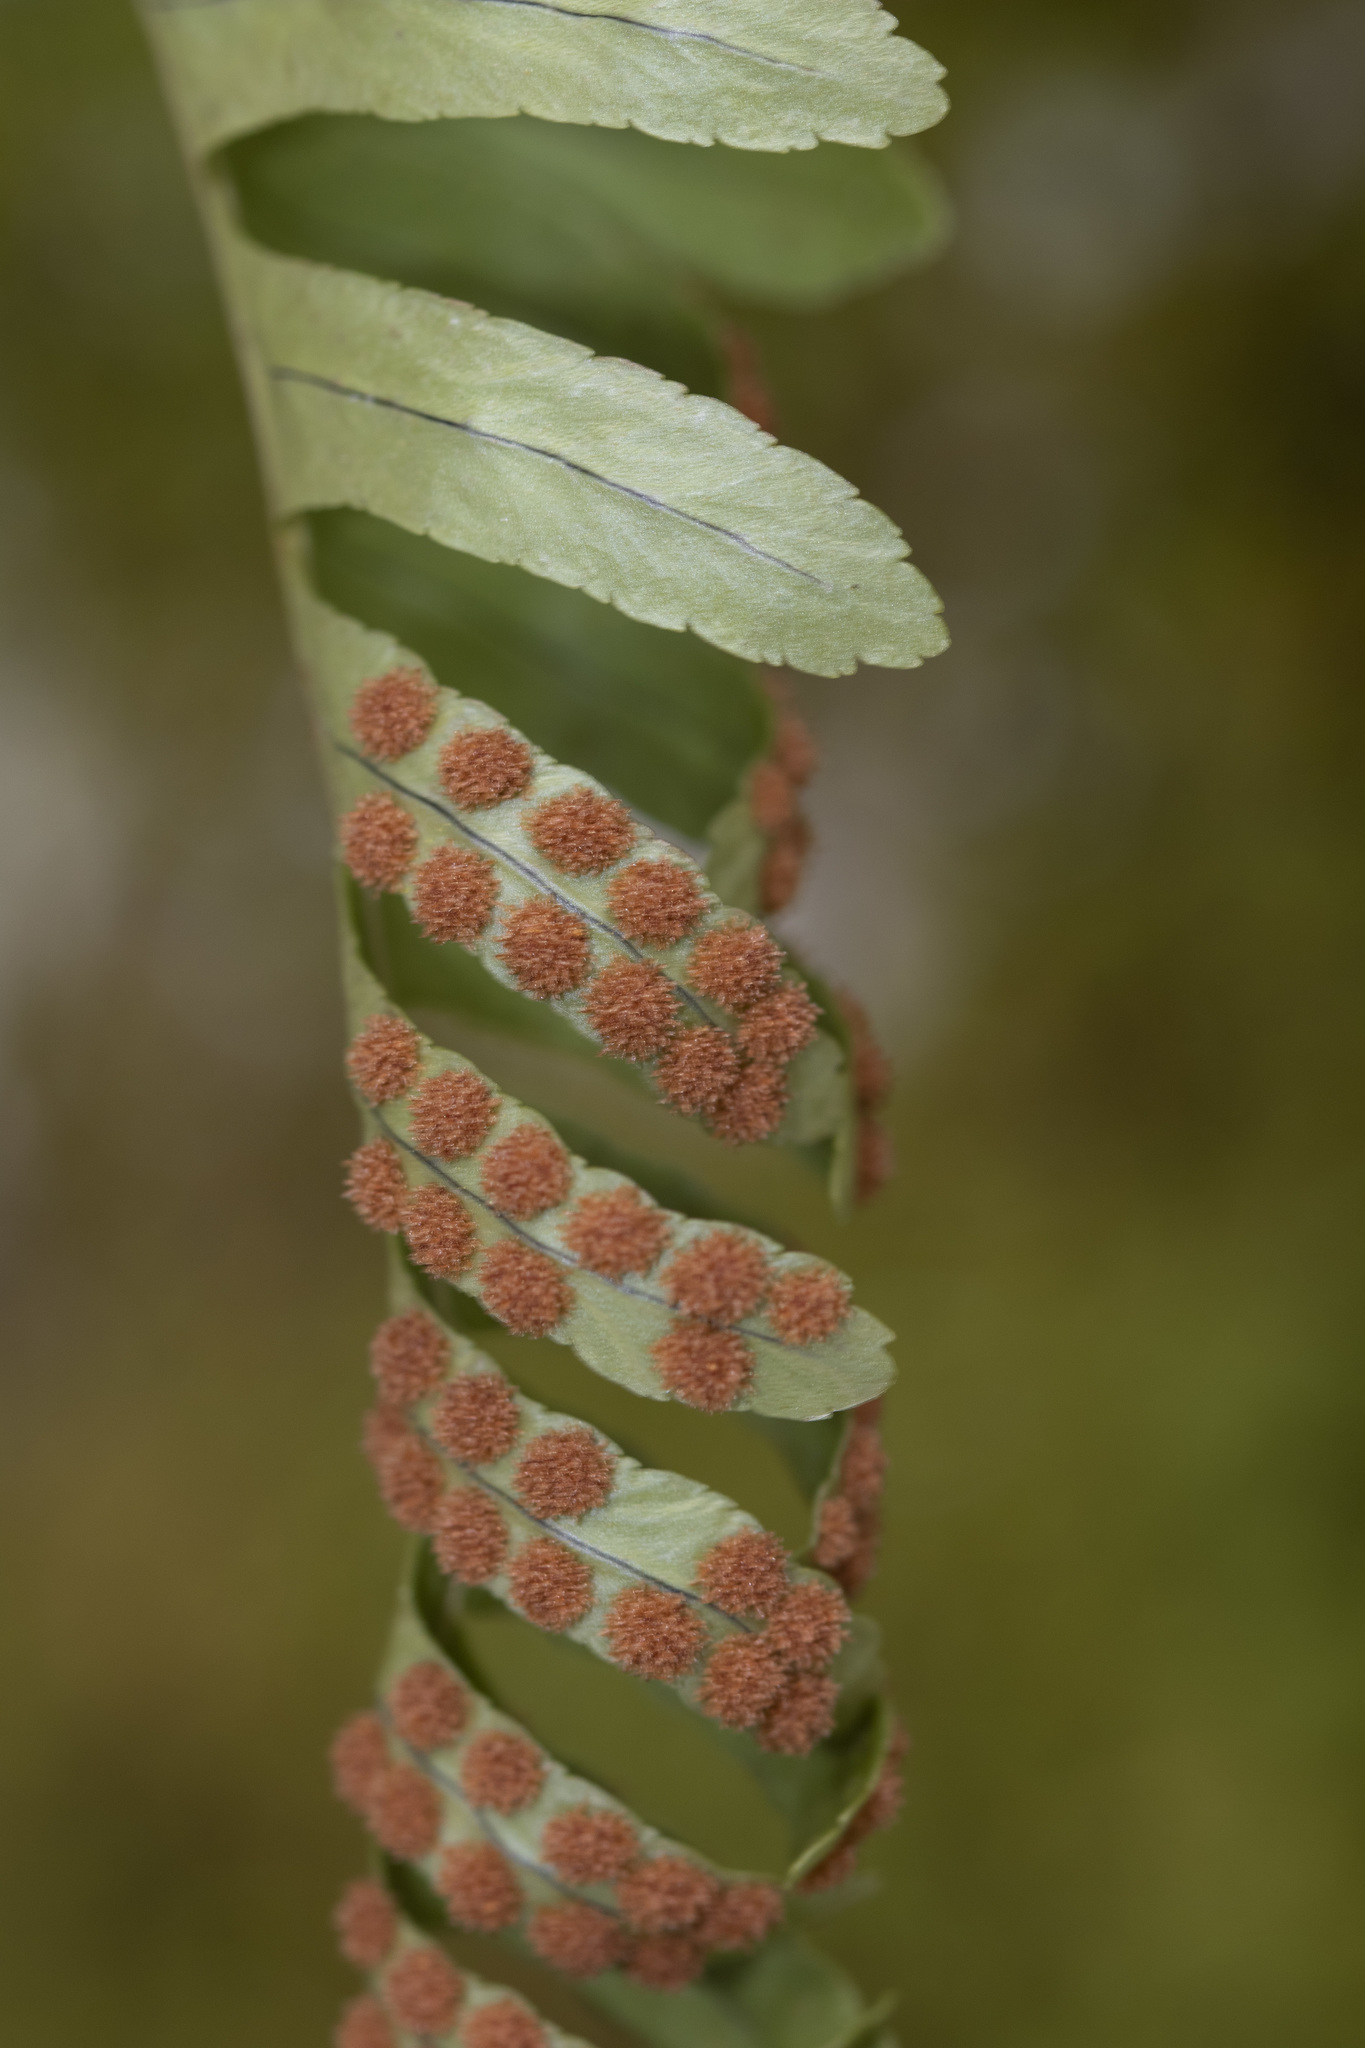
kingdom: Plantae
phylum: Tracheophyta
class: Polypodiopsida
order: Polypodiales
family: Polypodiaceae
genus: Polypodium
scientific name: Polypodium virginianum
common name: American wall fern
